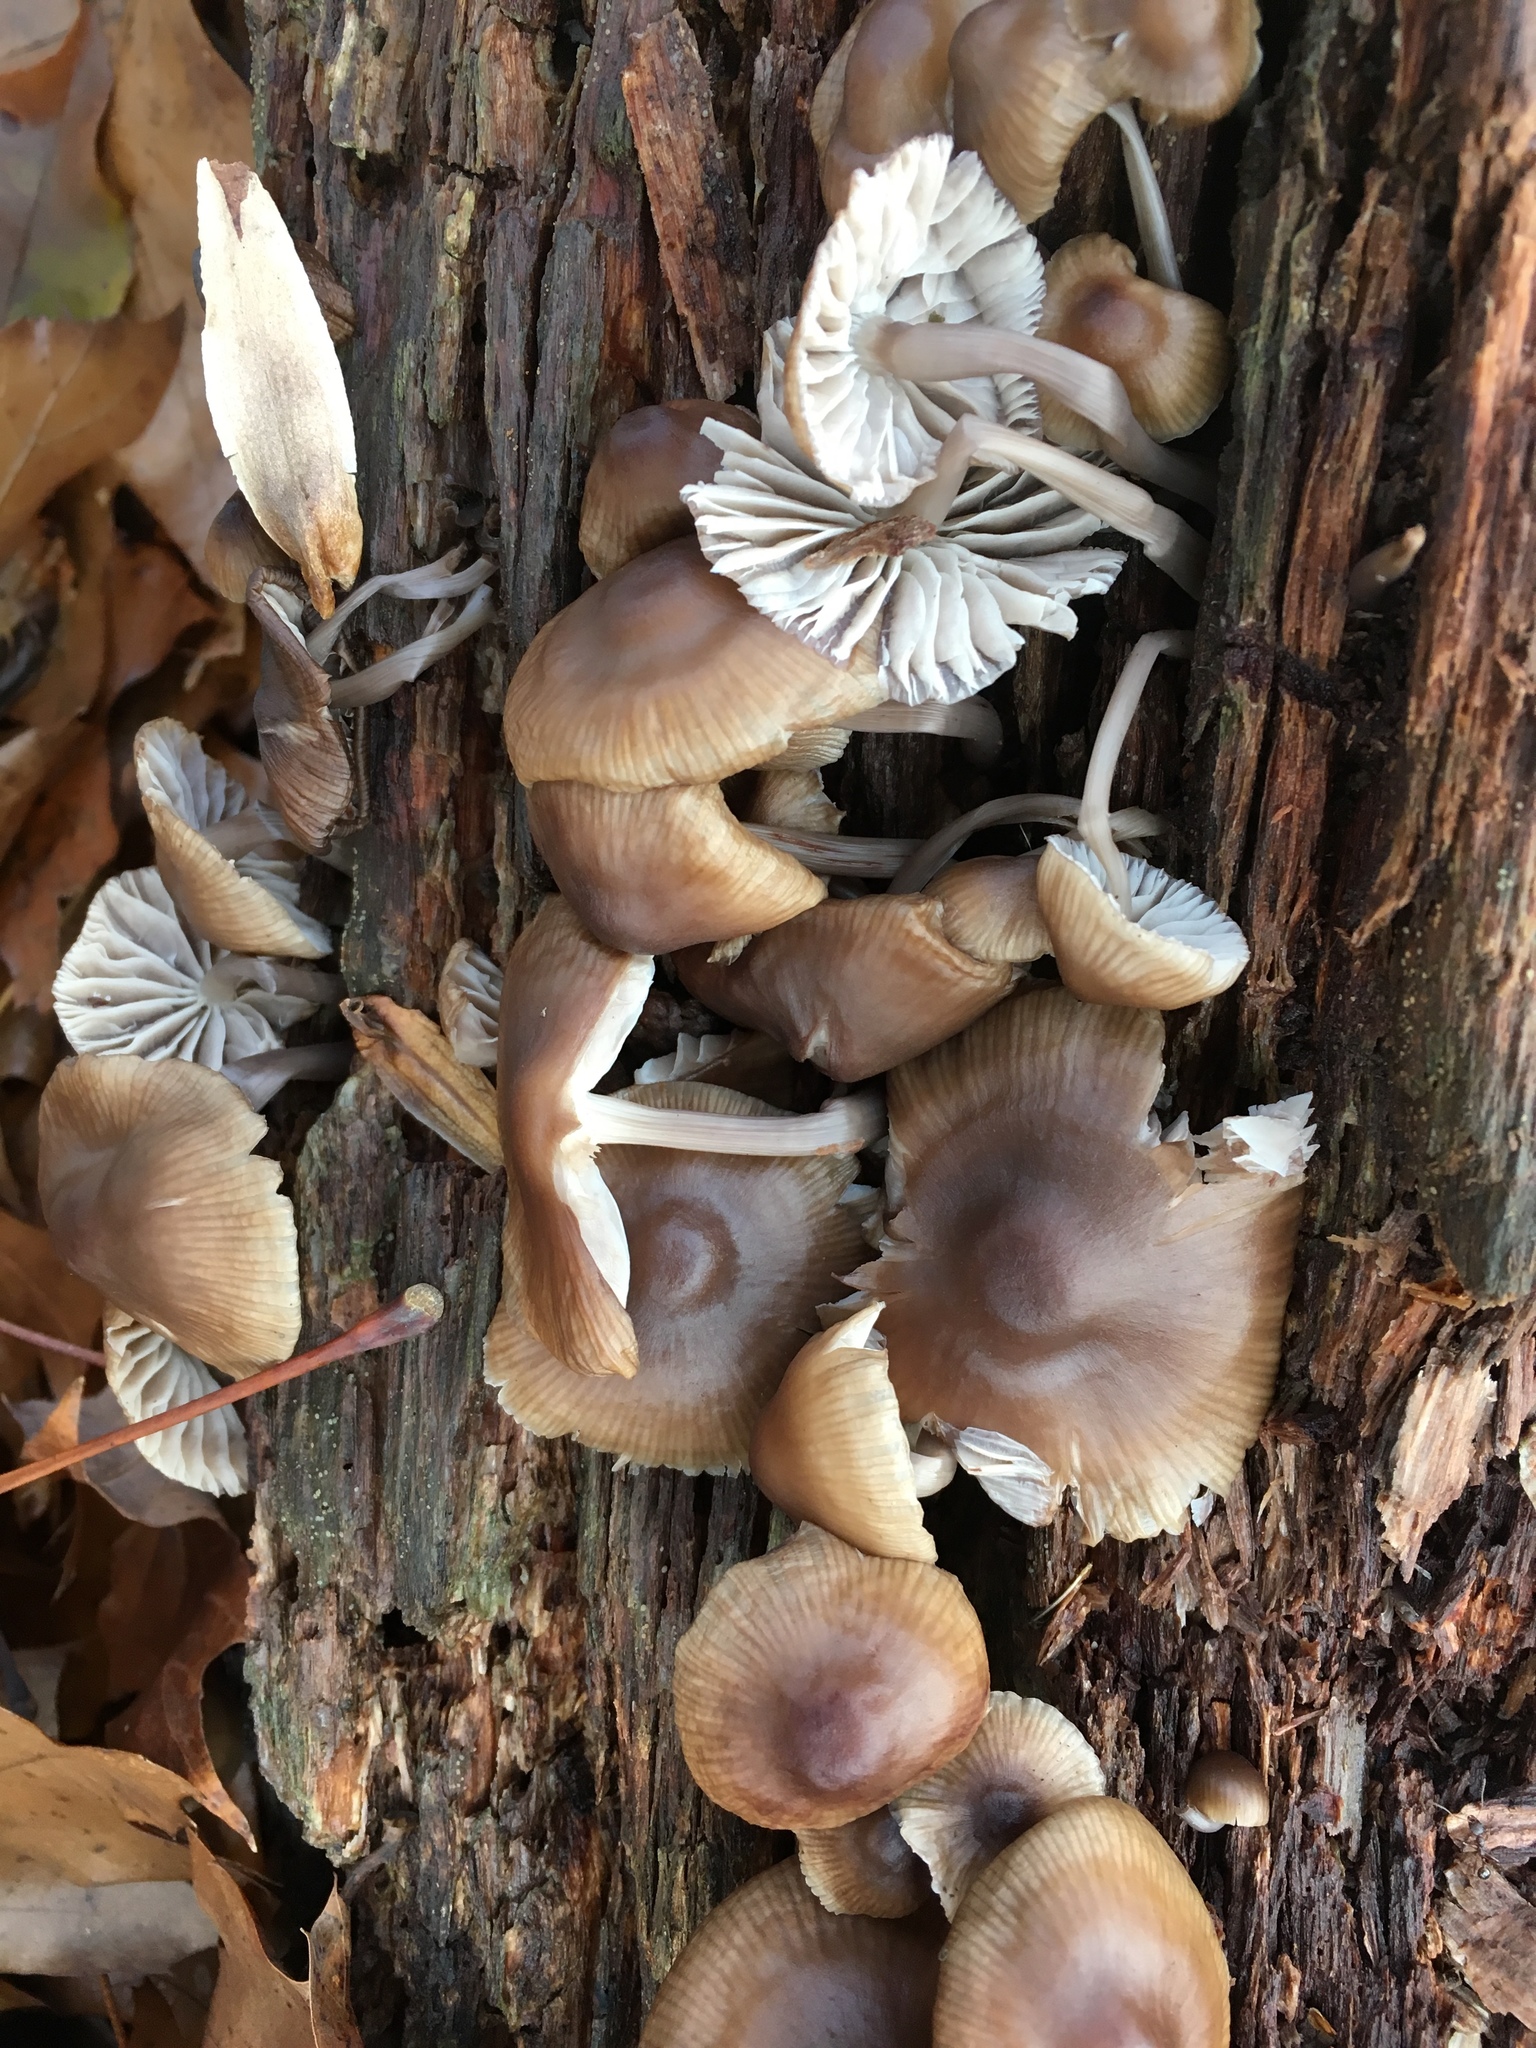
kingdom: Fungi
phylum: Basidiomycota
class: Agaricomycetes
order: Agaricales
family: Mycenaceae
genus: Mycena
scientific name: Mycena galericulata
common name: Bonnet mycena
